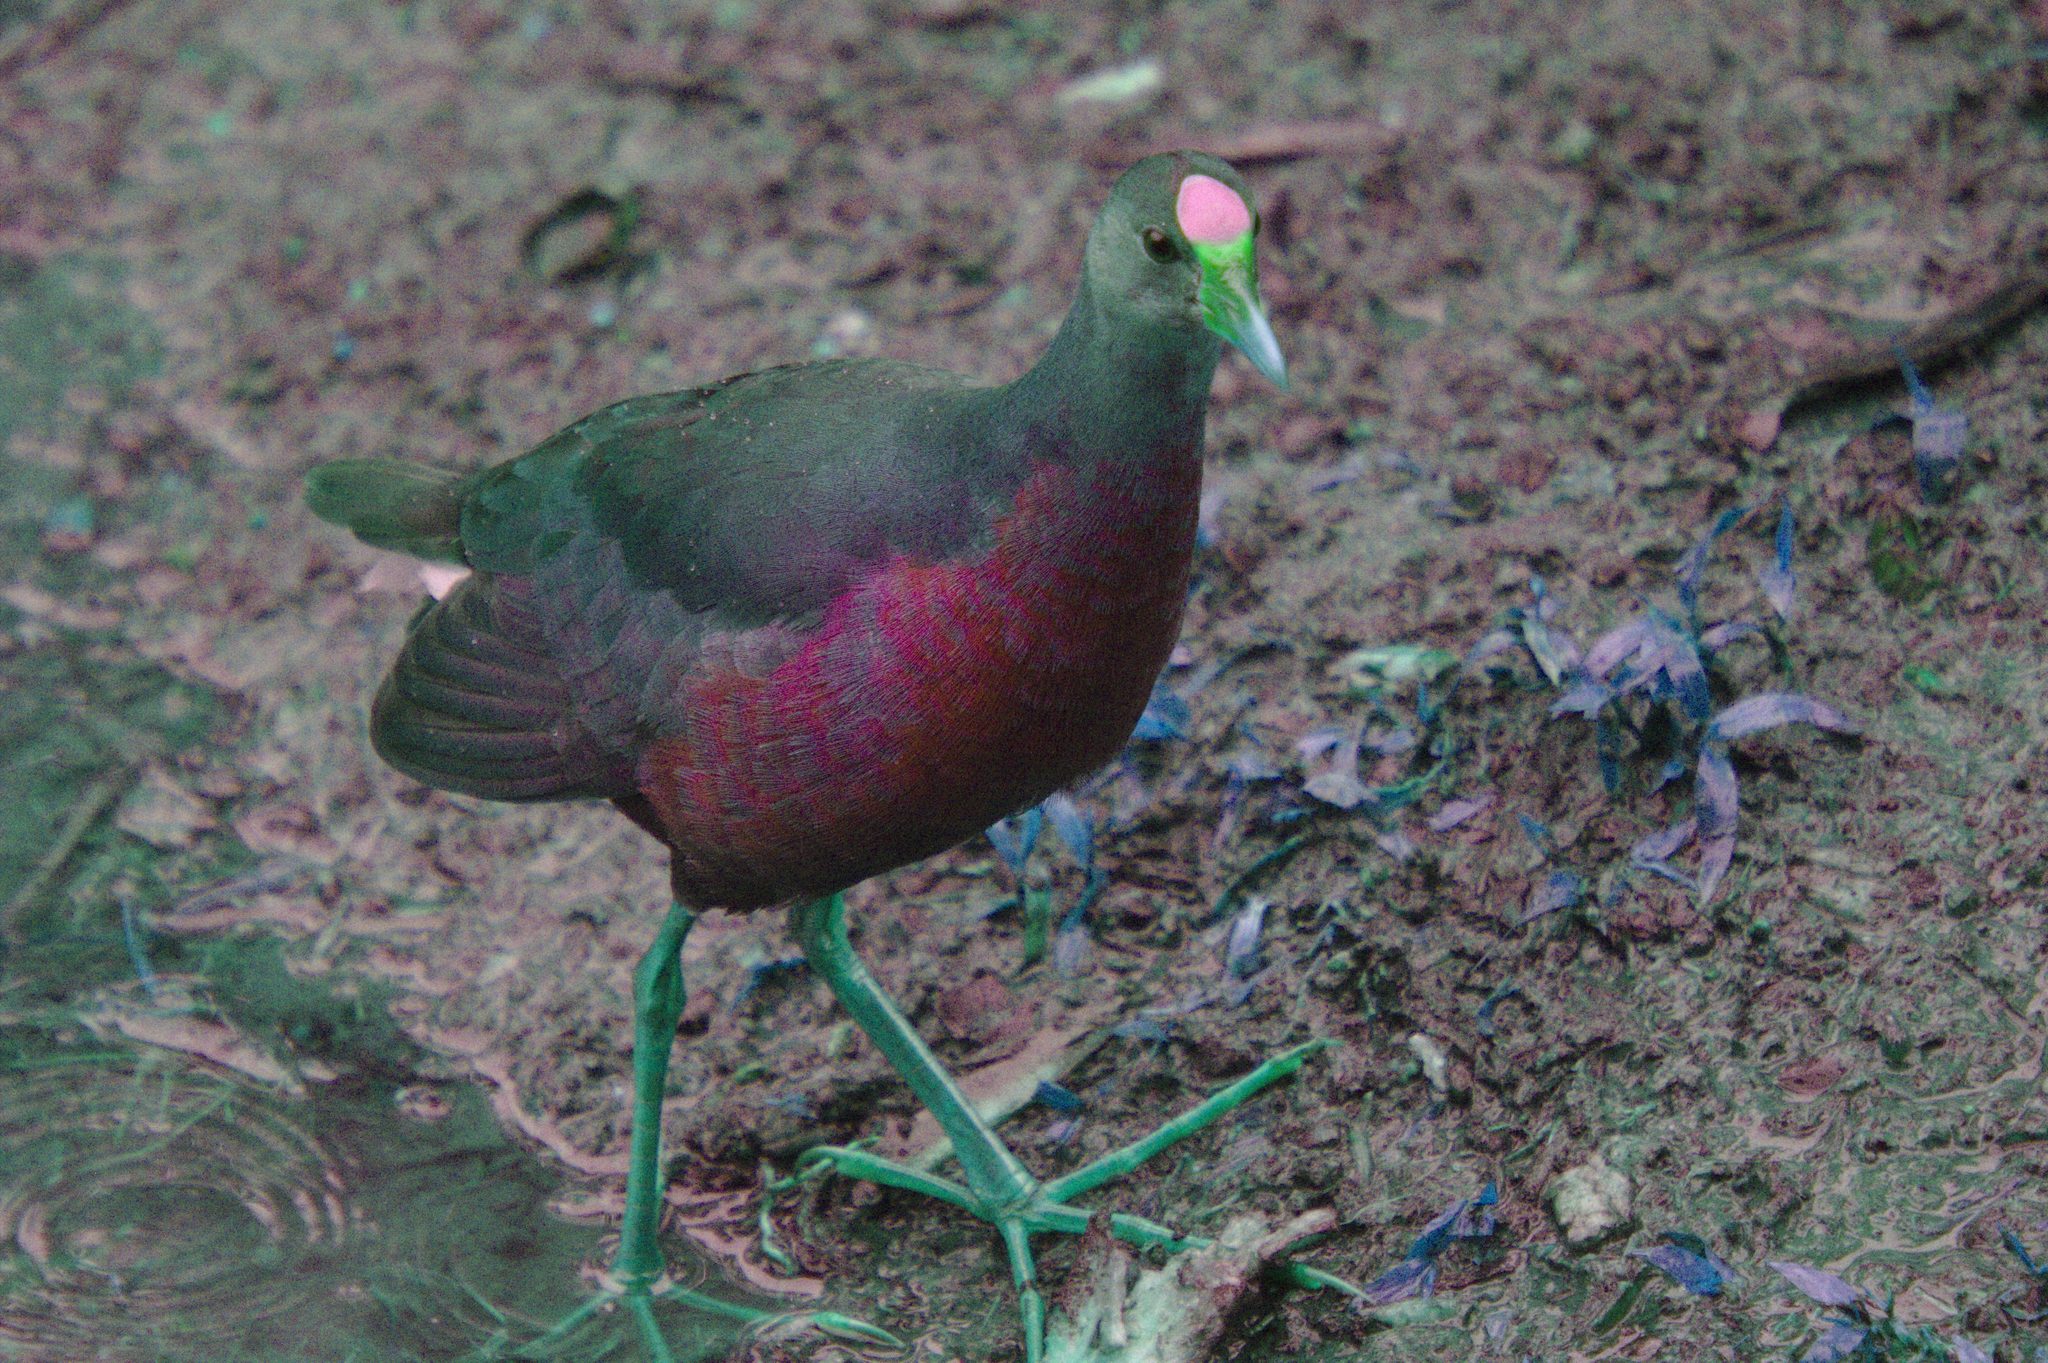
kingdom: Animalia
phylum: Chordata
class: Aves
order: Gruiformes
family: Rallidae
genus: Porphyrio
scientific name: Porphyrio martinica
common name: Purple gallinule
